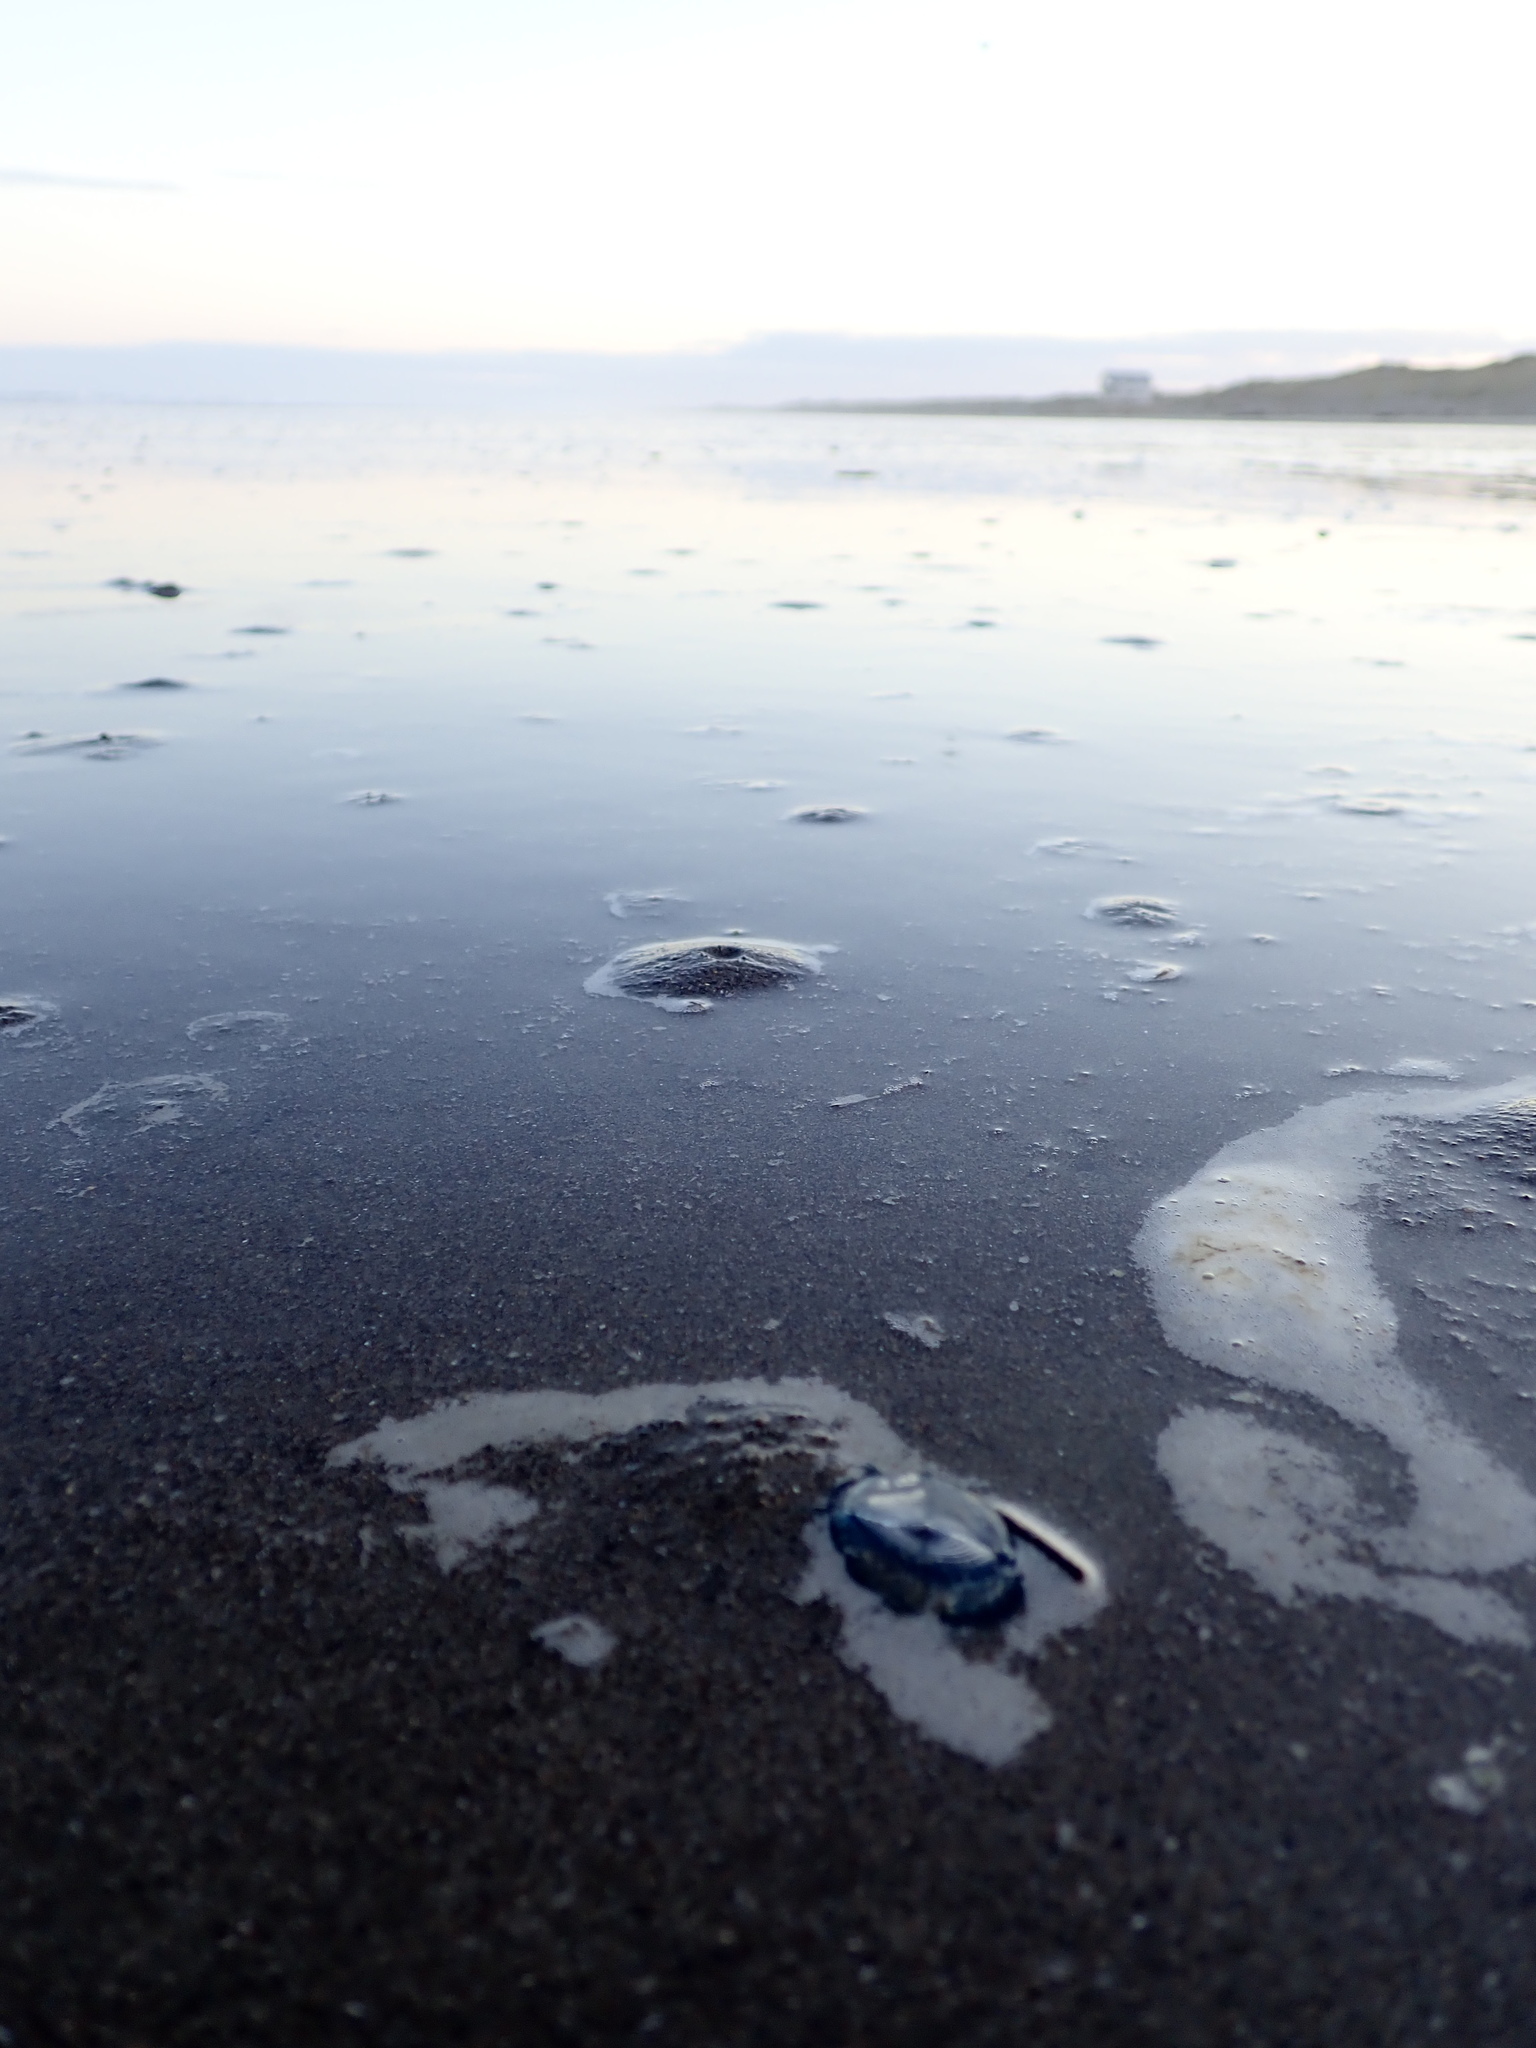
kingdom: Animalia
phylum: Cnidaria
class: Hydrozoa
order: Anthoathecata
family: Porpitidae
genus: Velella
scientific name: Velella velella
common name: By-the-wind-sailor
